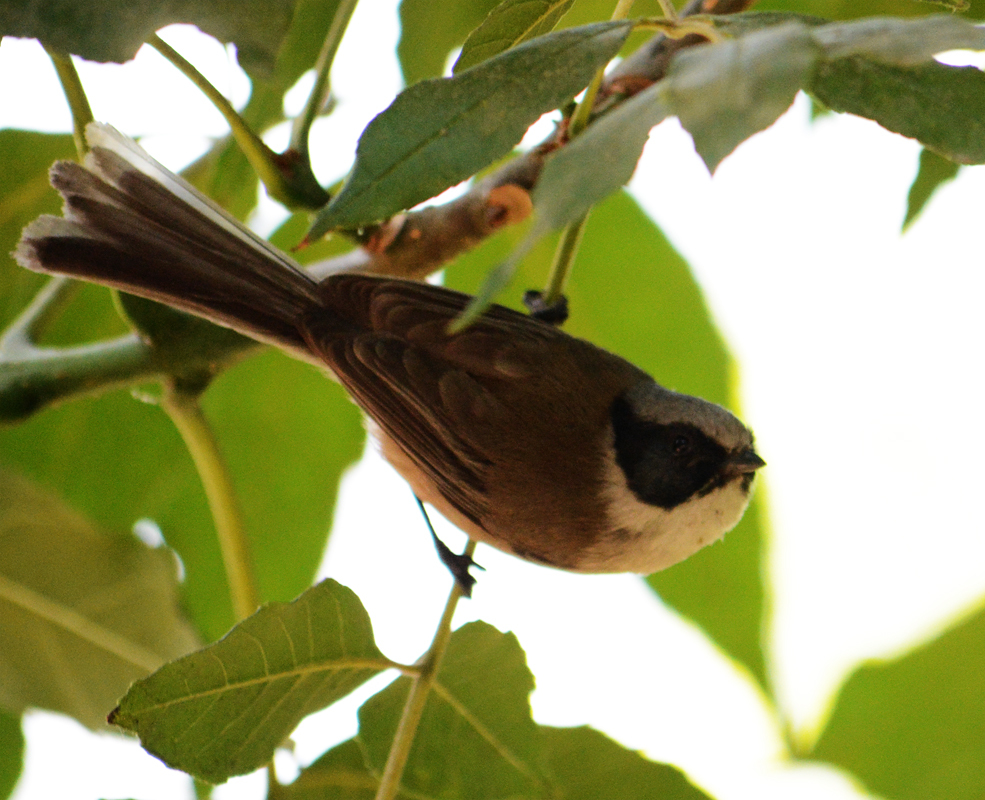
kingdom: Animalia
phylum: Chordata
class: Aves
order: Passeriformes
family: Aegithalidae
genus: Psaltriparus
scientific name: Psaltriparus minimus
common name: American bushtit
